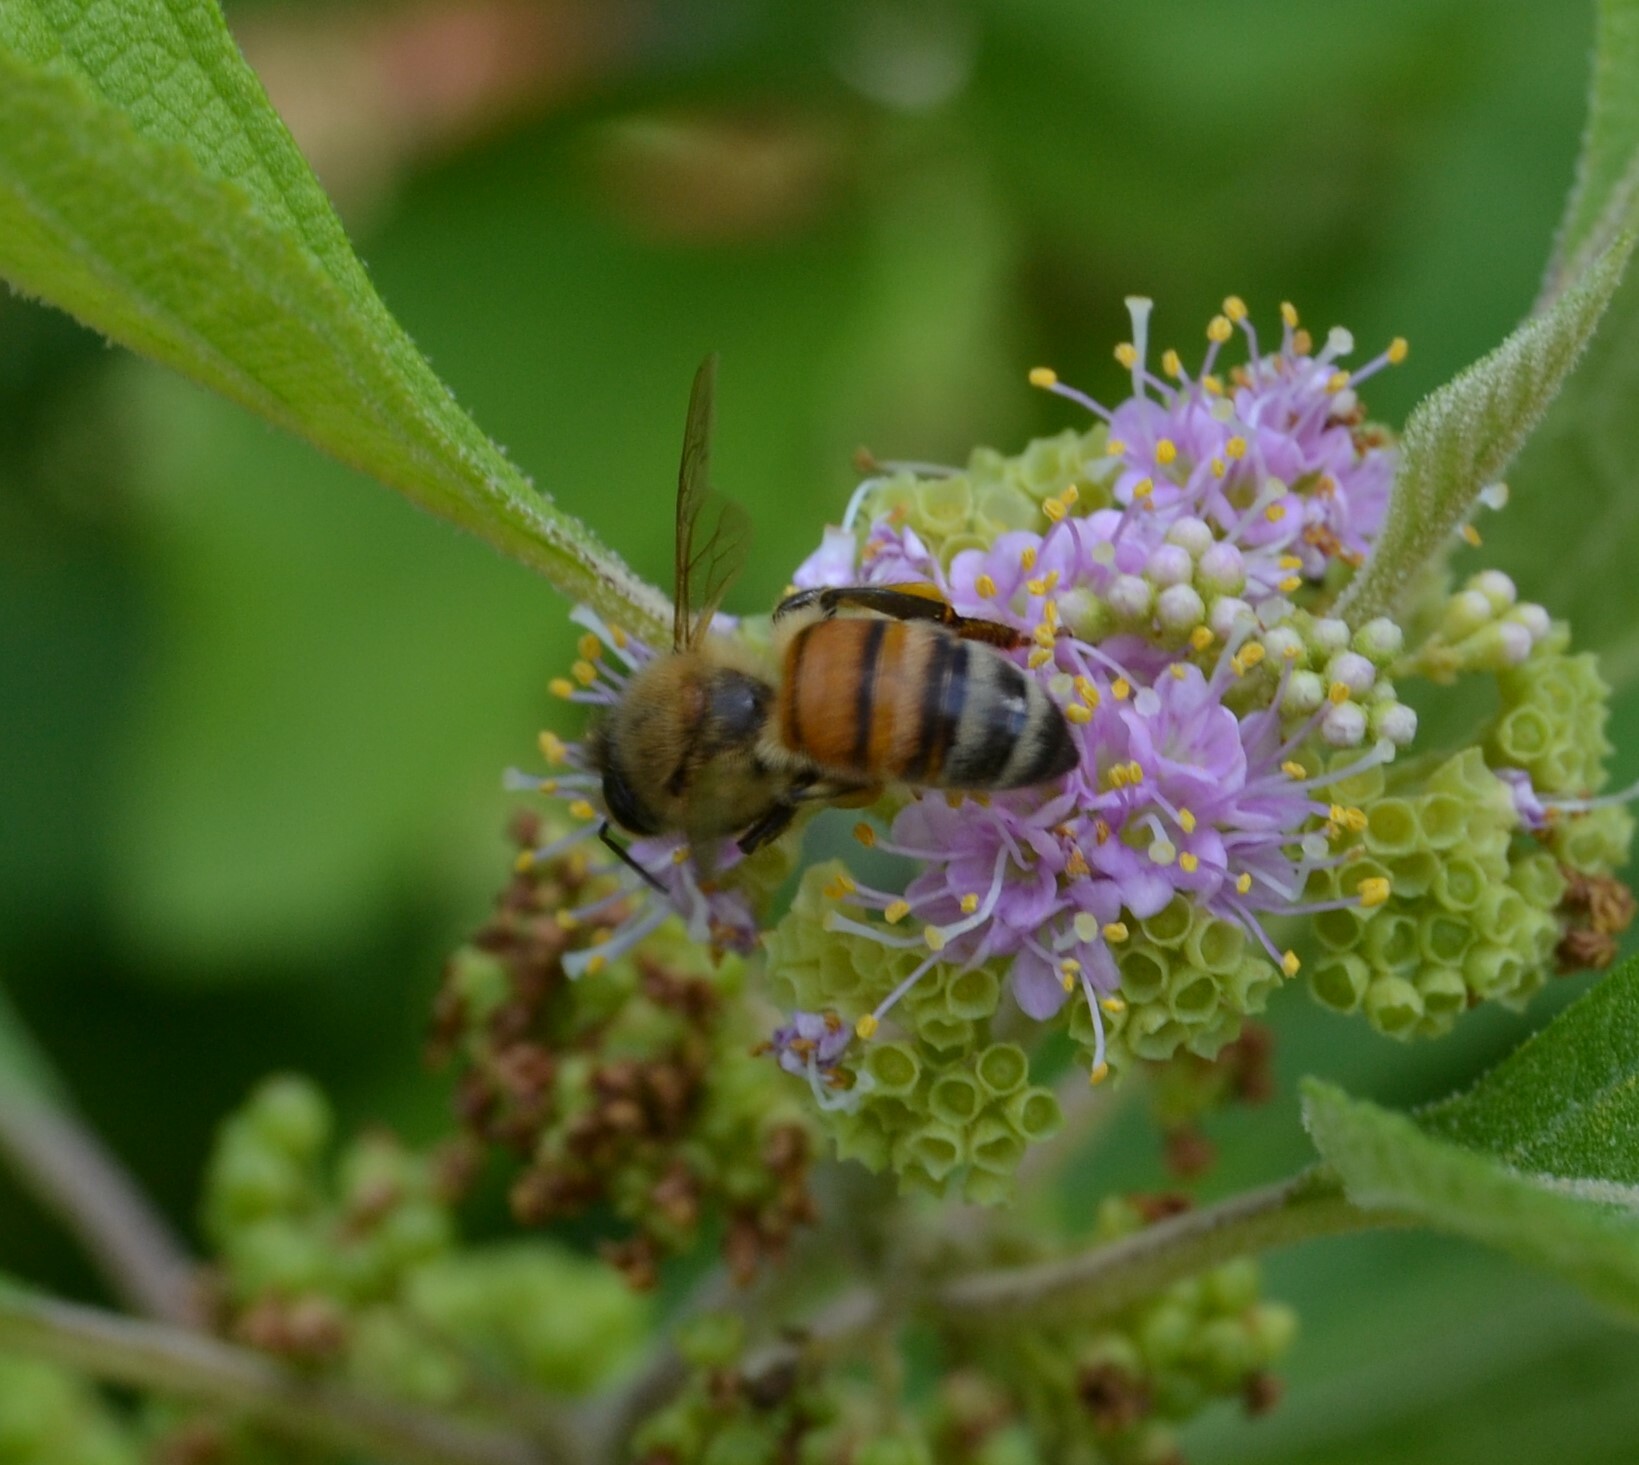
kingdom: Animalia
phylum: Arthropoda
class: Insecta
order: Hymenoptera
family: Apidae
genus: Apis
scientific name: Apis mellifera
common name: Honey bee
